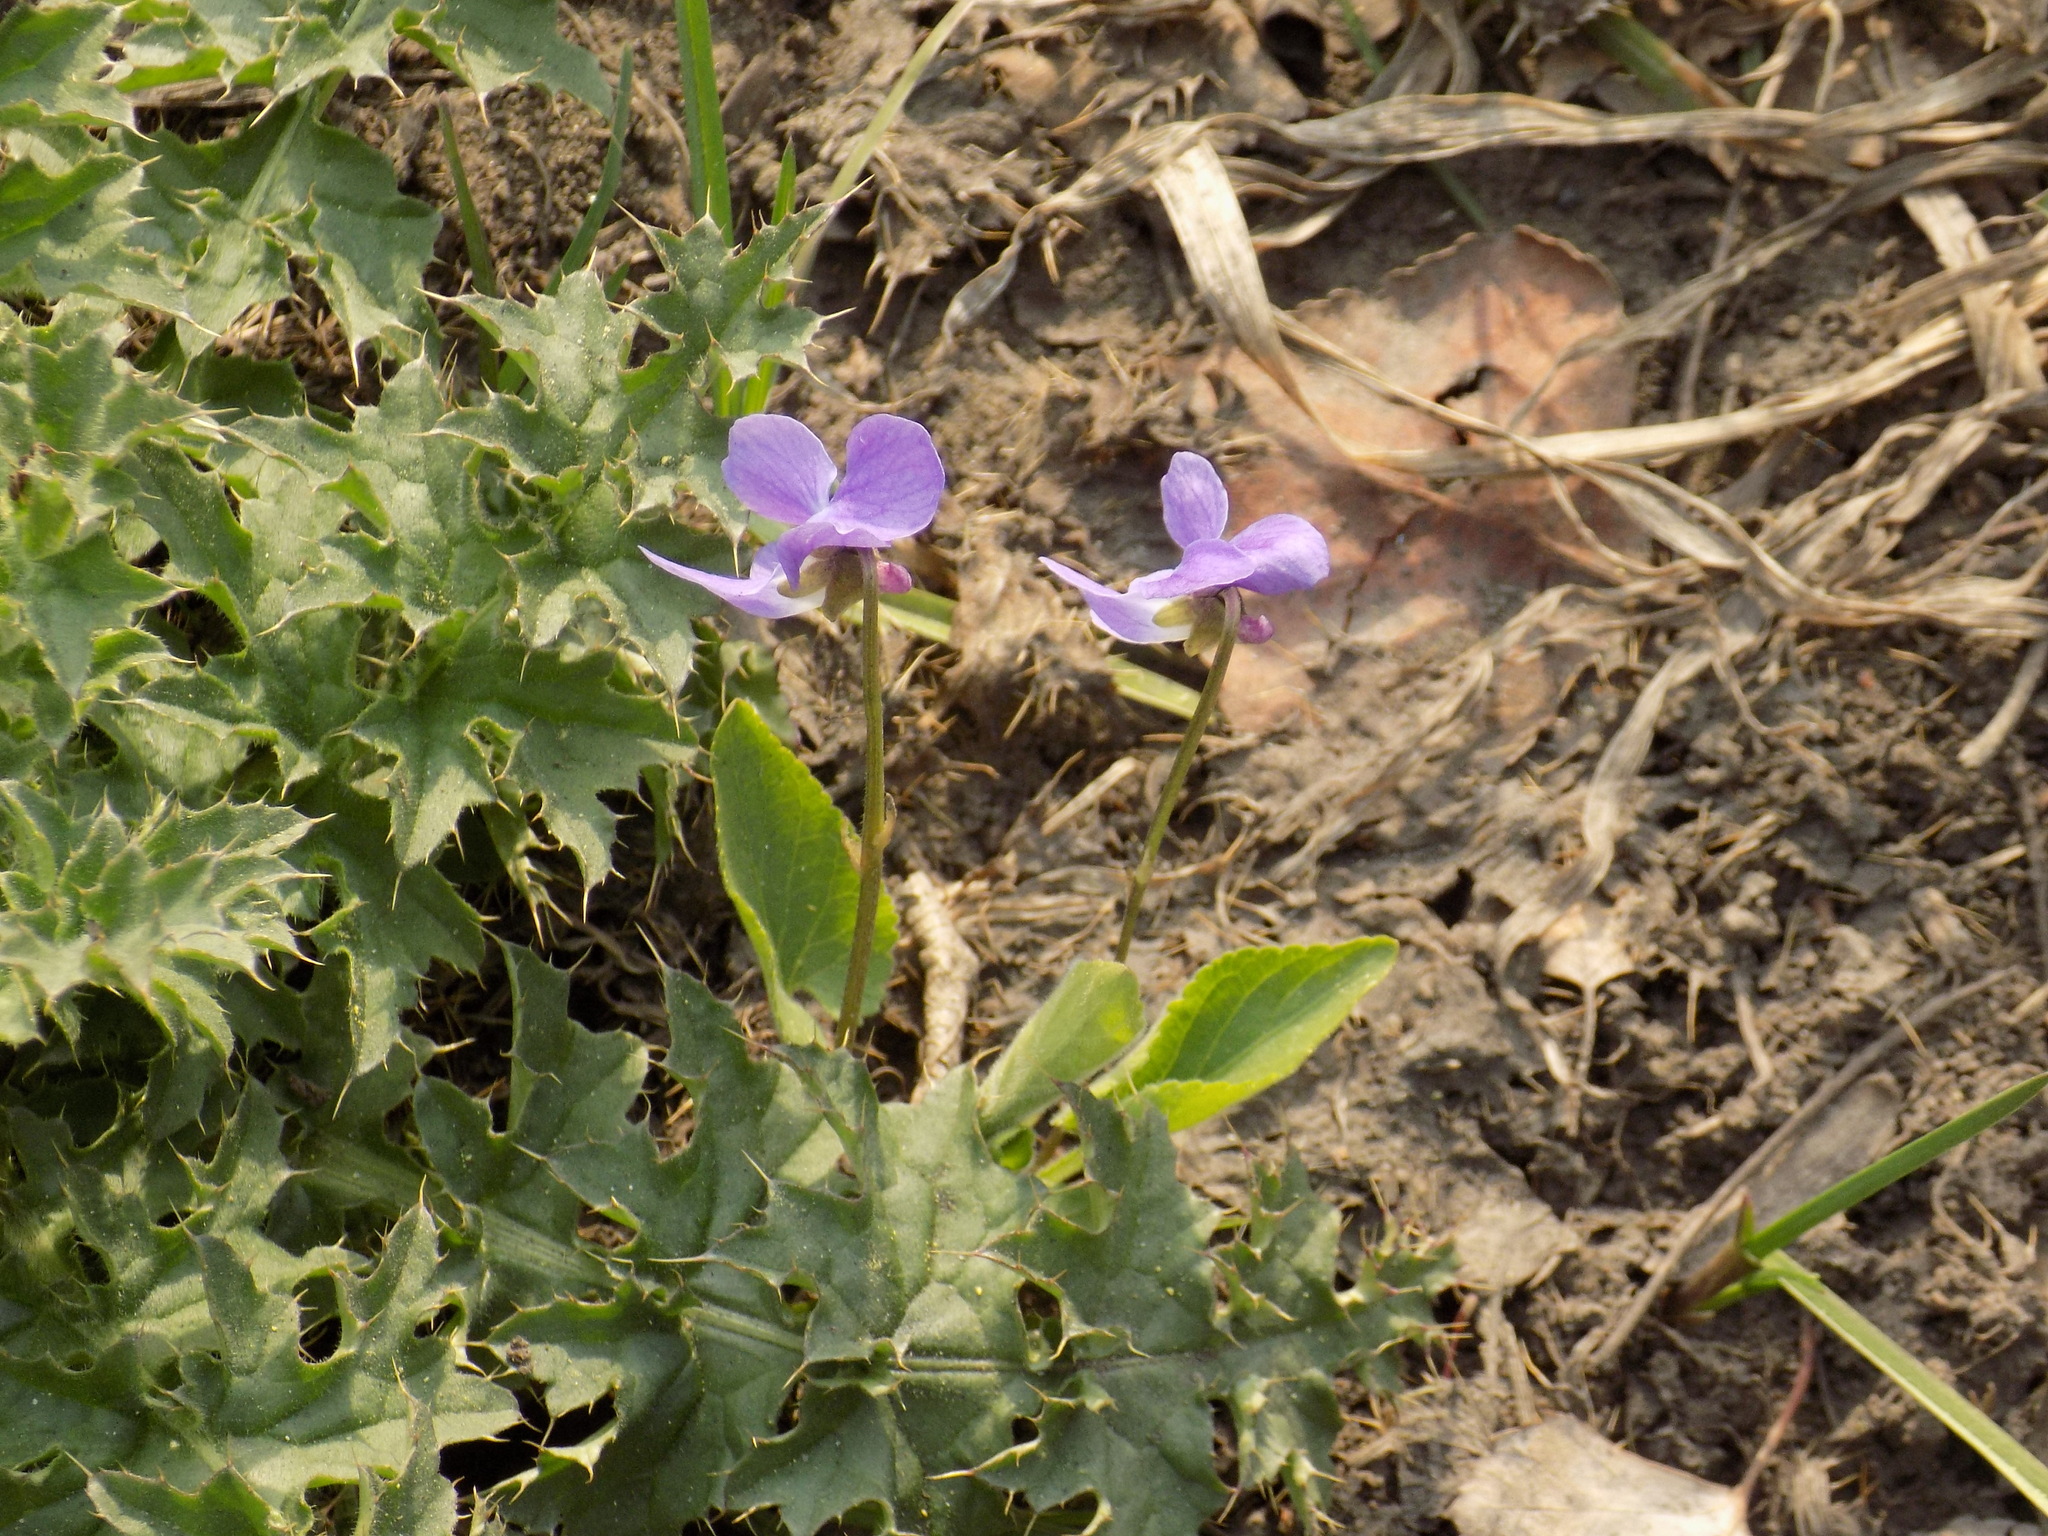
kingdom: Plantae
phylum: Tracheophyta
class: Magnoliopsida
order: Malpighiales
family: Violaceae
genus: Viola
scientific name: Viola hirta
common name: Hairy violet
